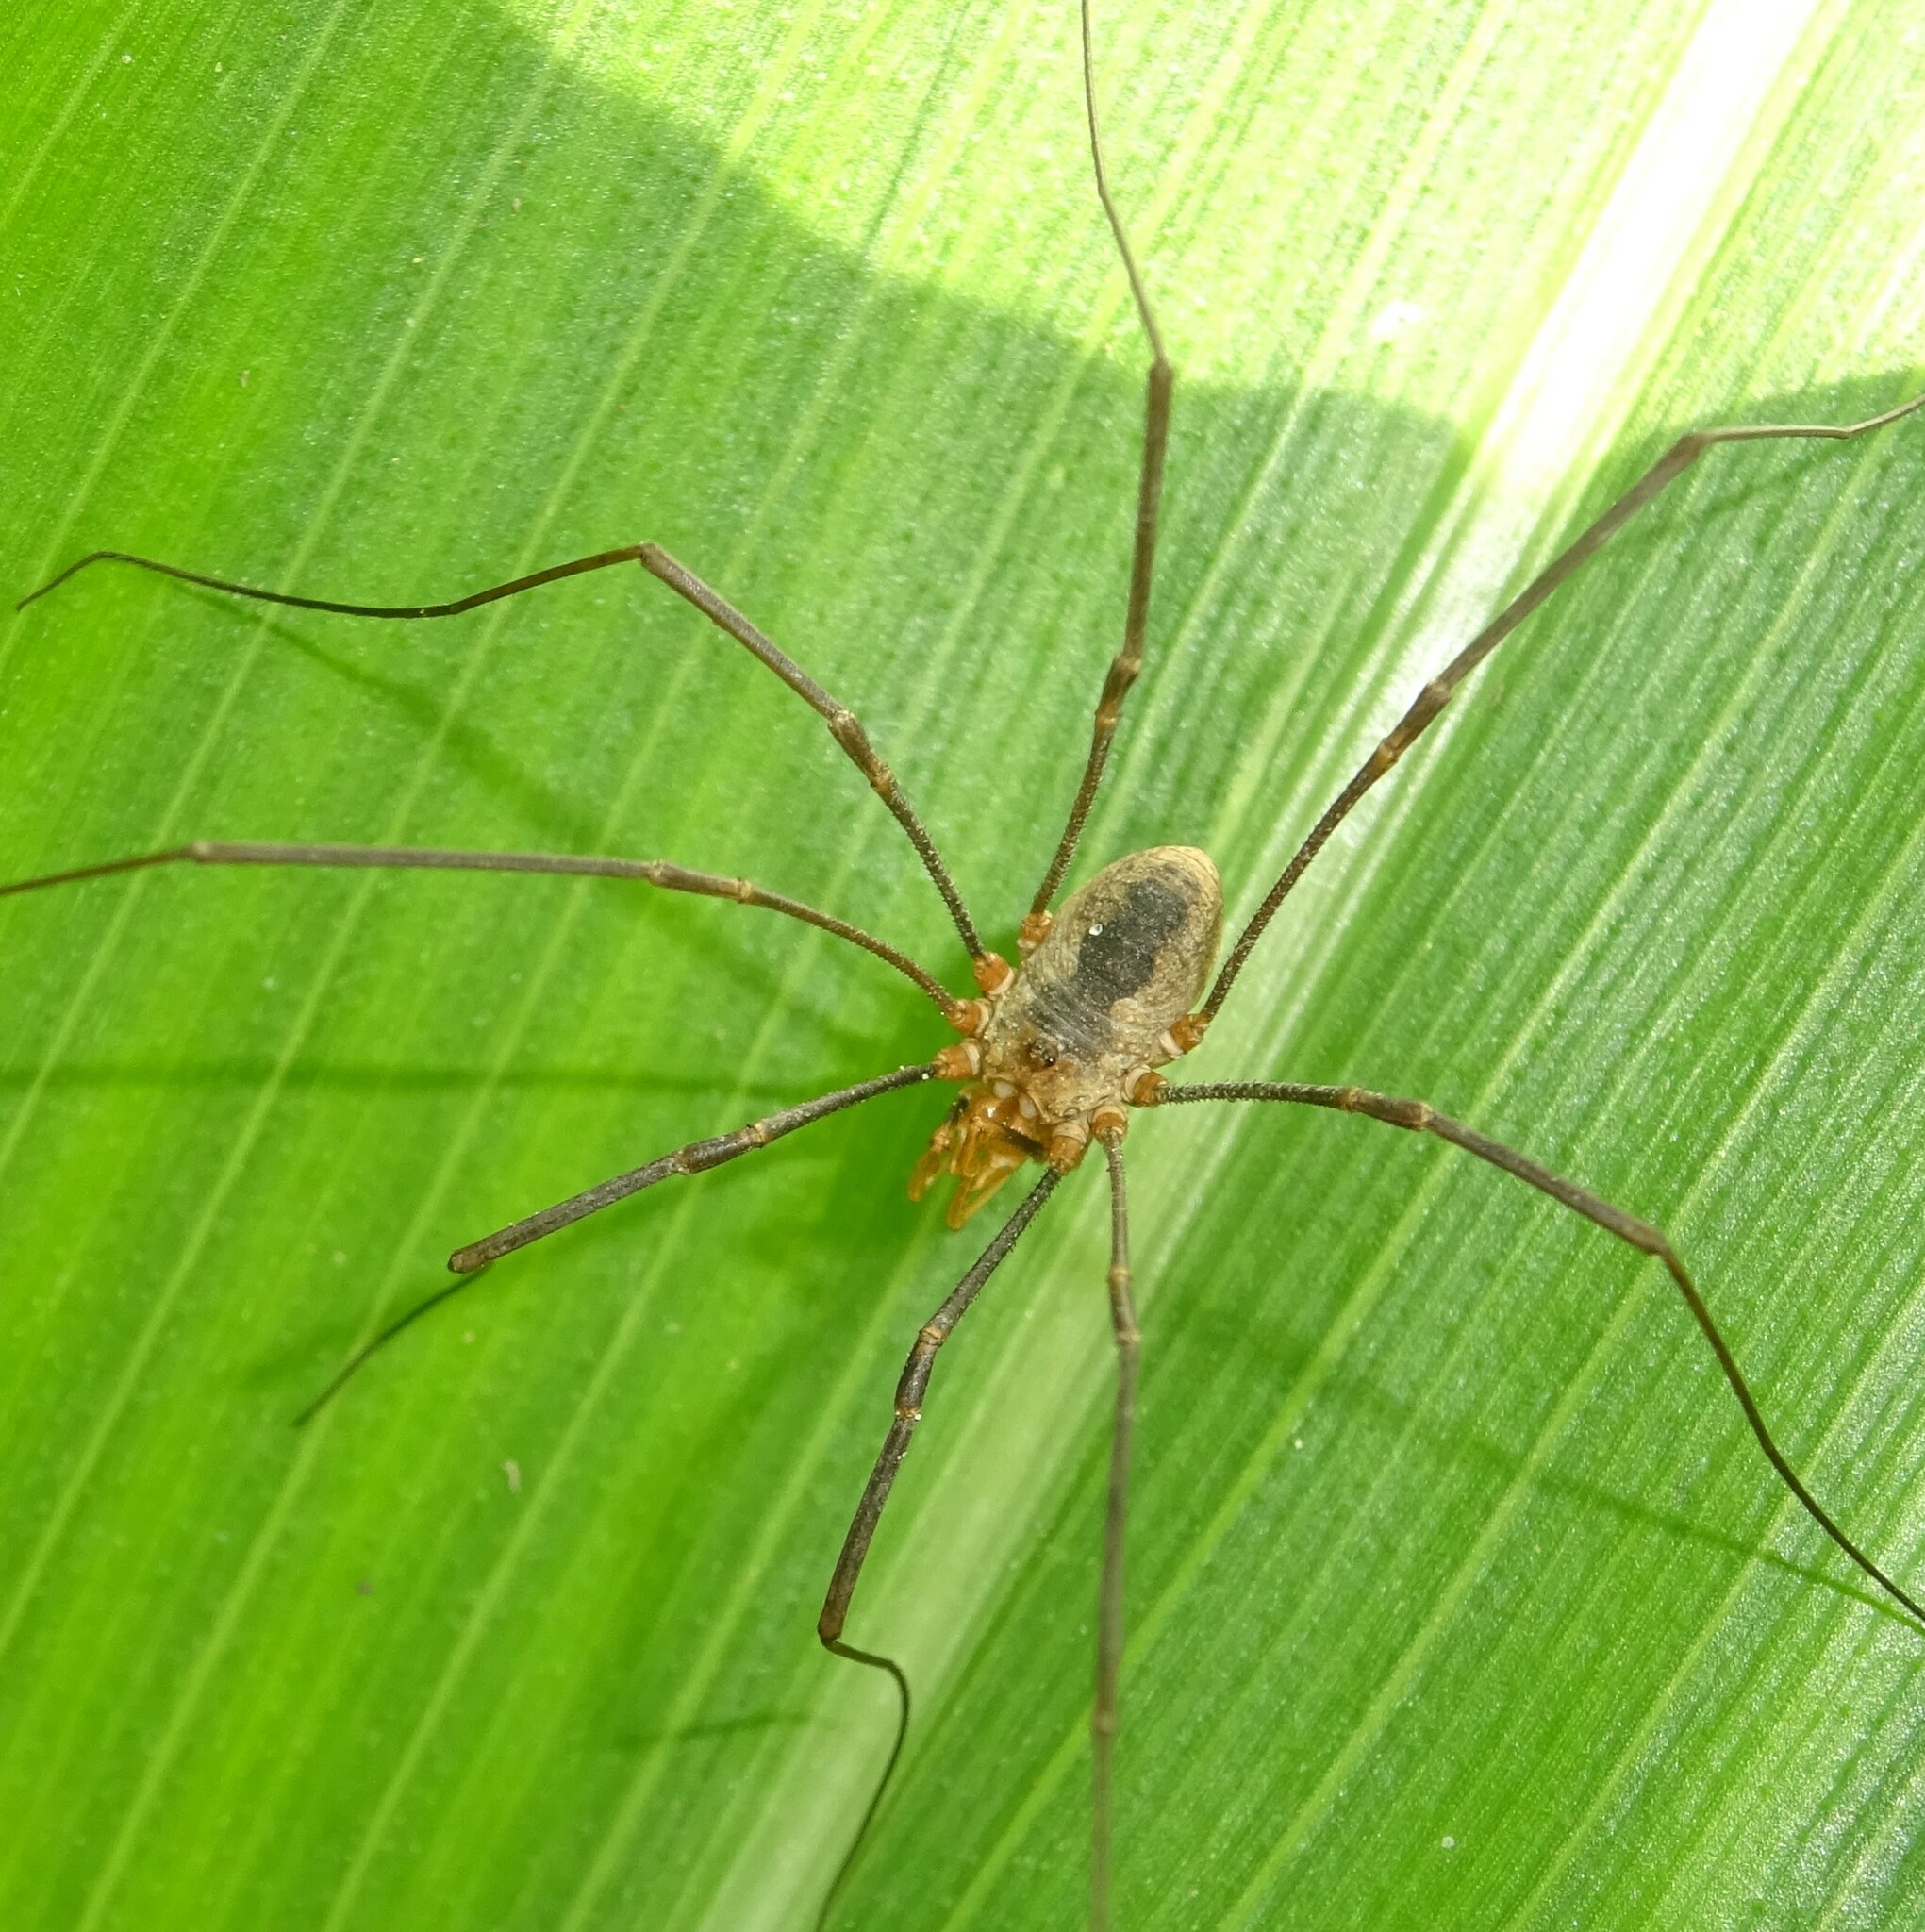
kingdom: Animalia
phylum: Arthropoda
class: Arachnida
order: Opiliones
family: Phalangiidae
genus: Phalangium
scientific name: Phalangium opilio
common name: Daddy longleg
